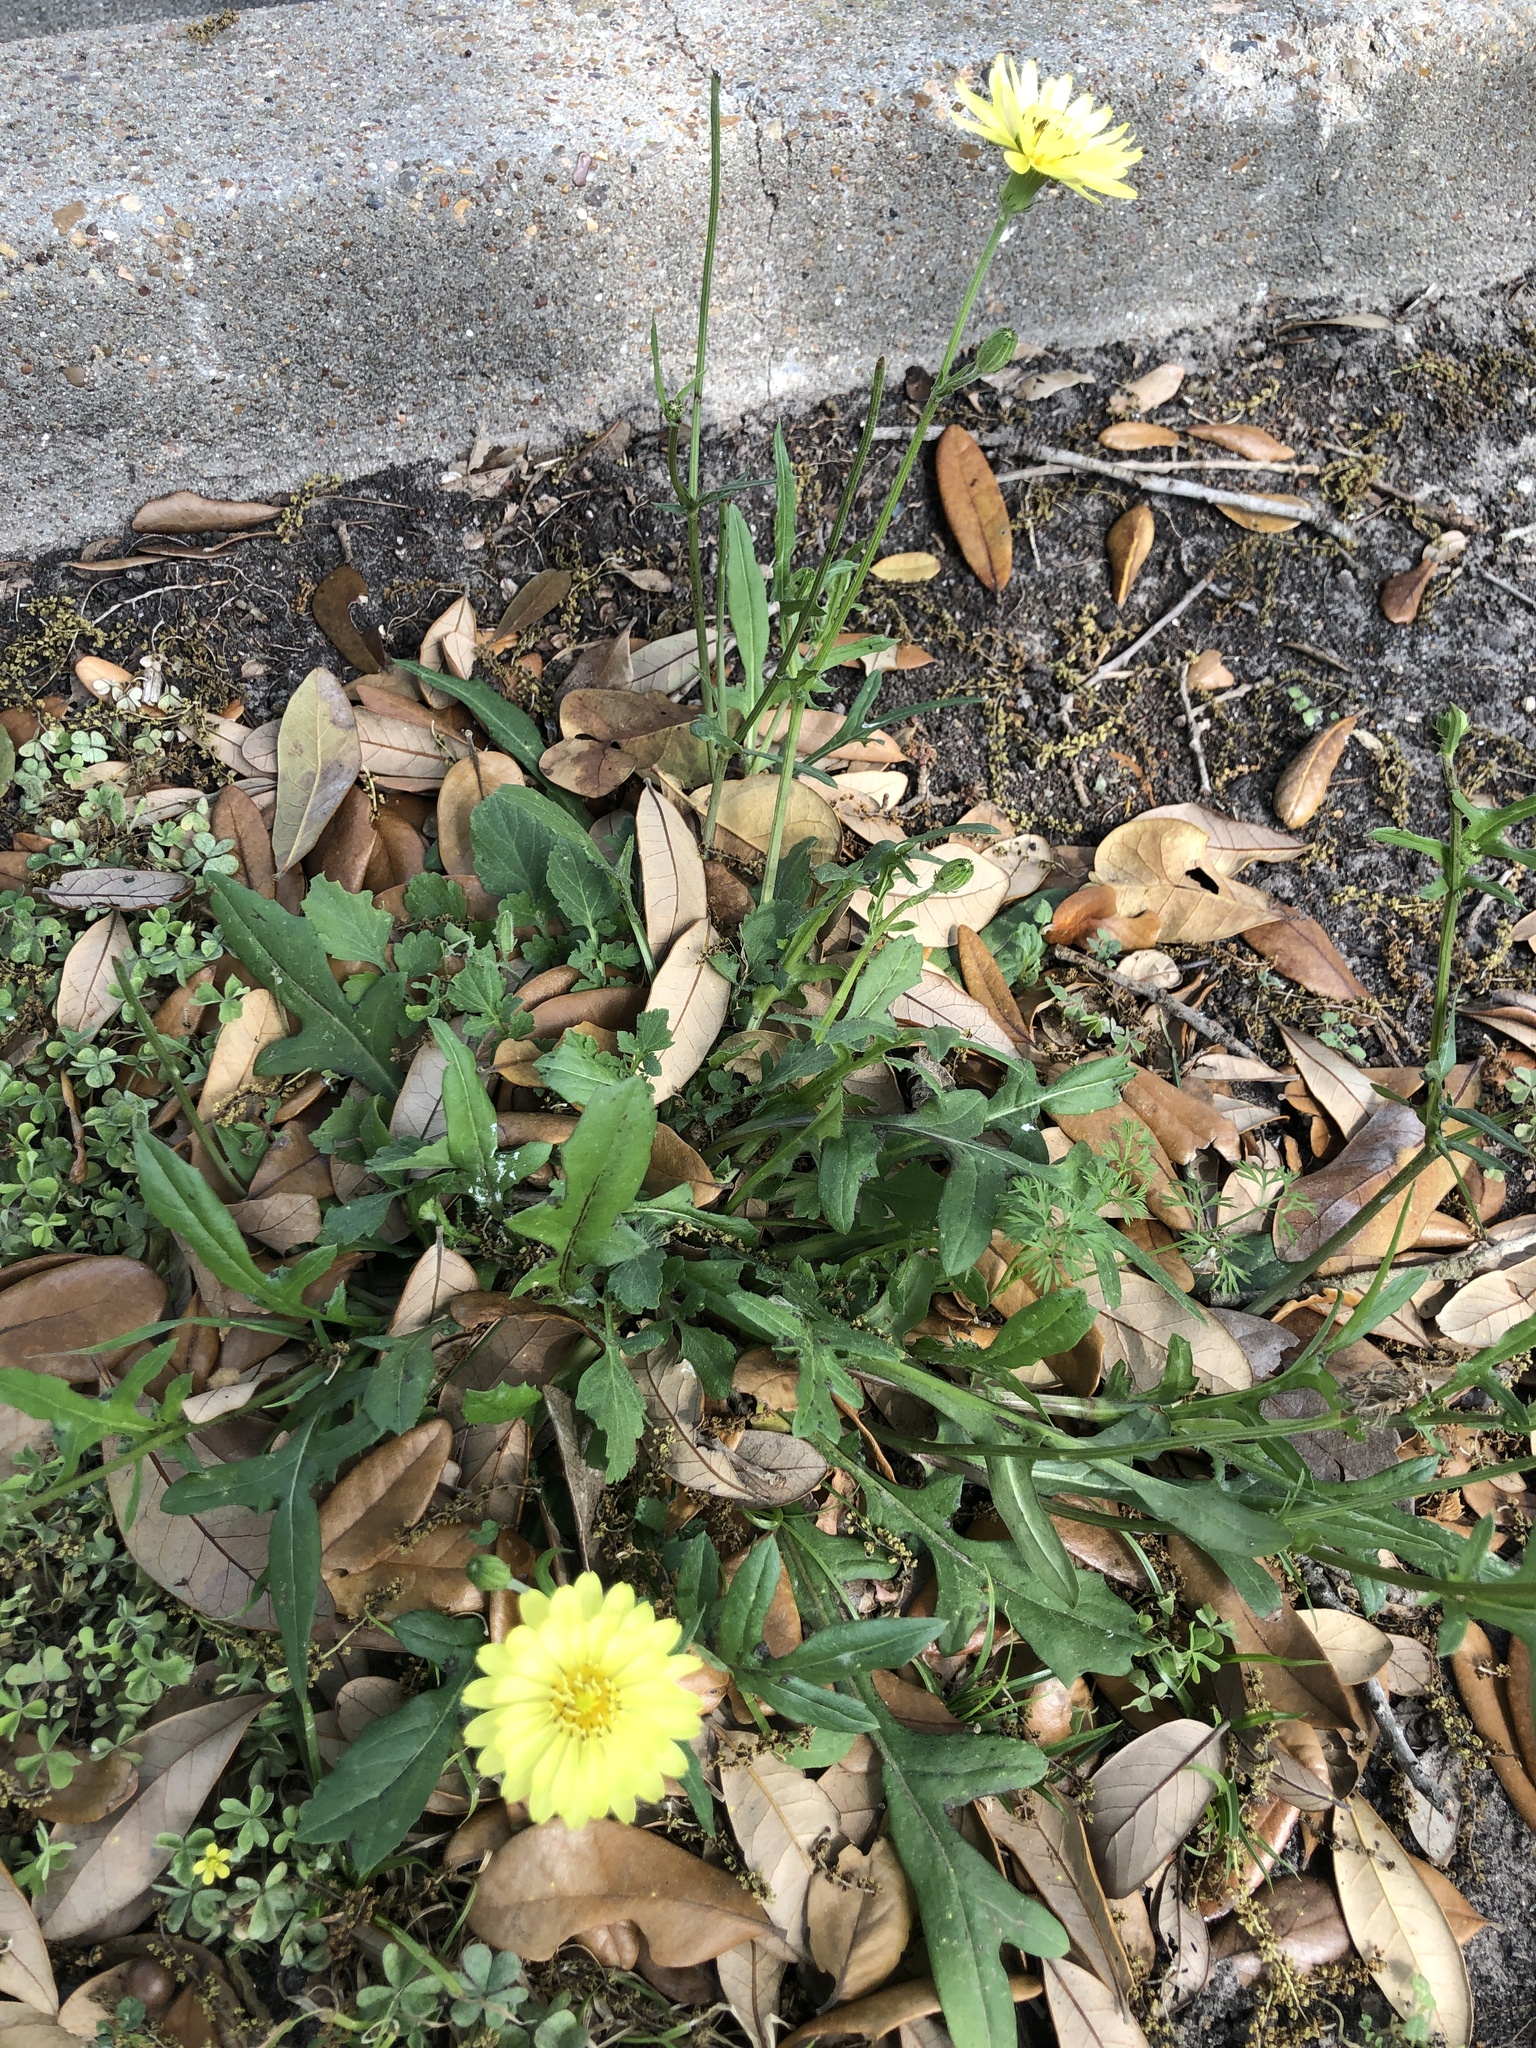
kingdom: Plantae
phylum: Tracheophyta
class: Magnoliopsida
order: Asterales
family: Asteraceae
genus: Pyrrhopappus
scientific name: Pyrrhopappus pauciflorus
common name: Texas false dandelion
